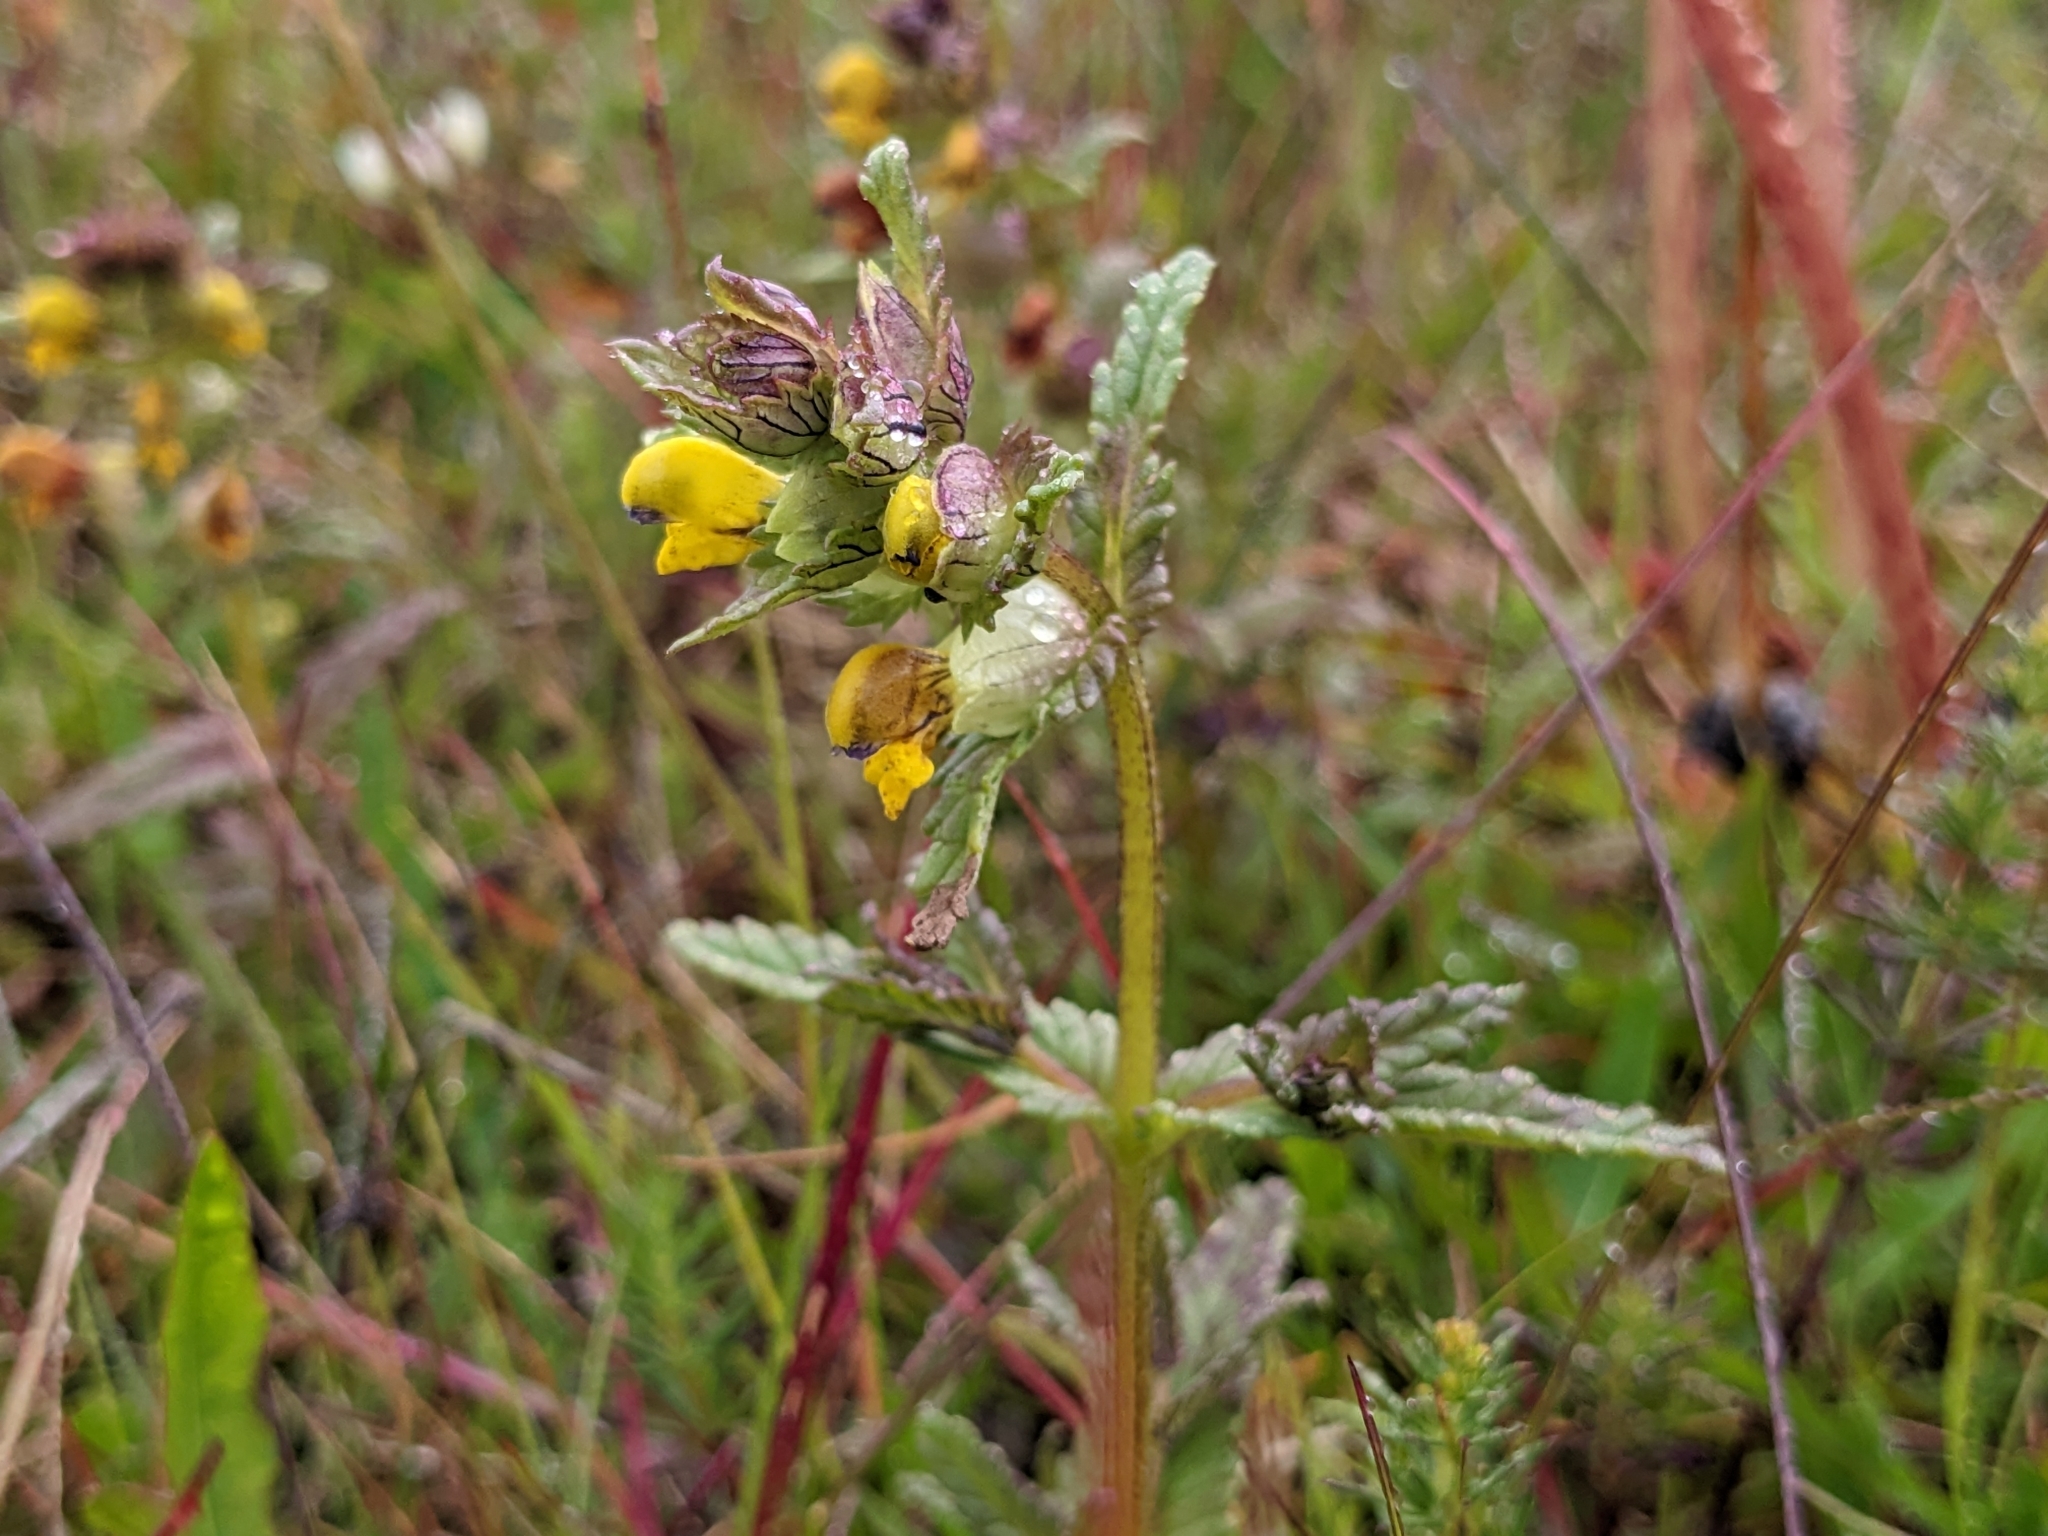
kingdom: Plantae
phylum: Tracheophyta
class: Magnoliopsida
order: Lamiales
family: Orobanchaceae
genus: Rhinanthus
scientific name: Rhinanthus minor
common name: Yellow-rattle
